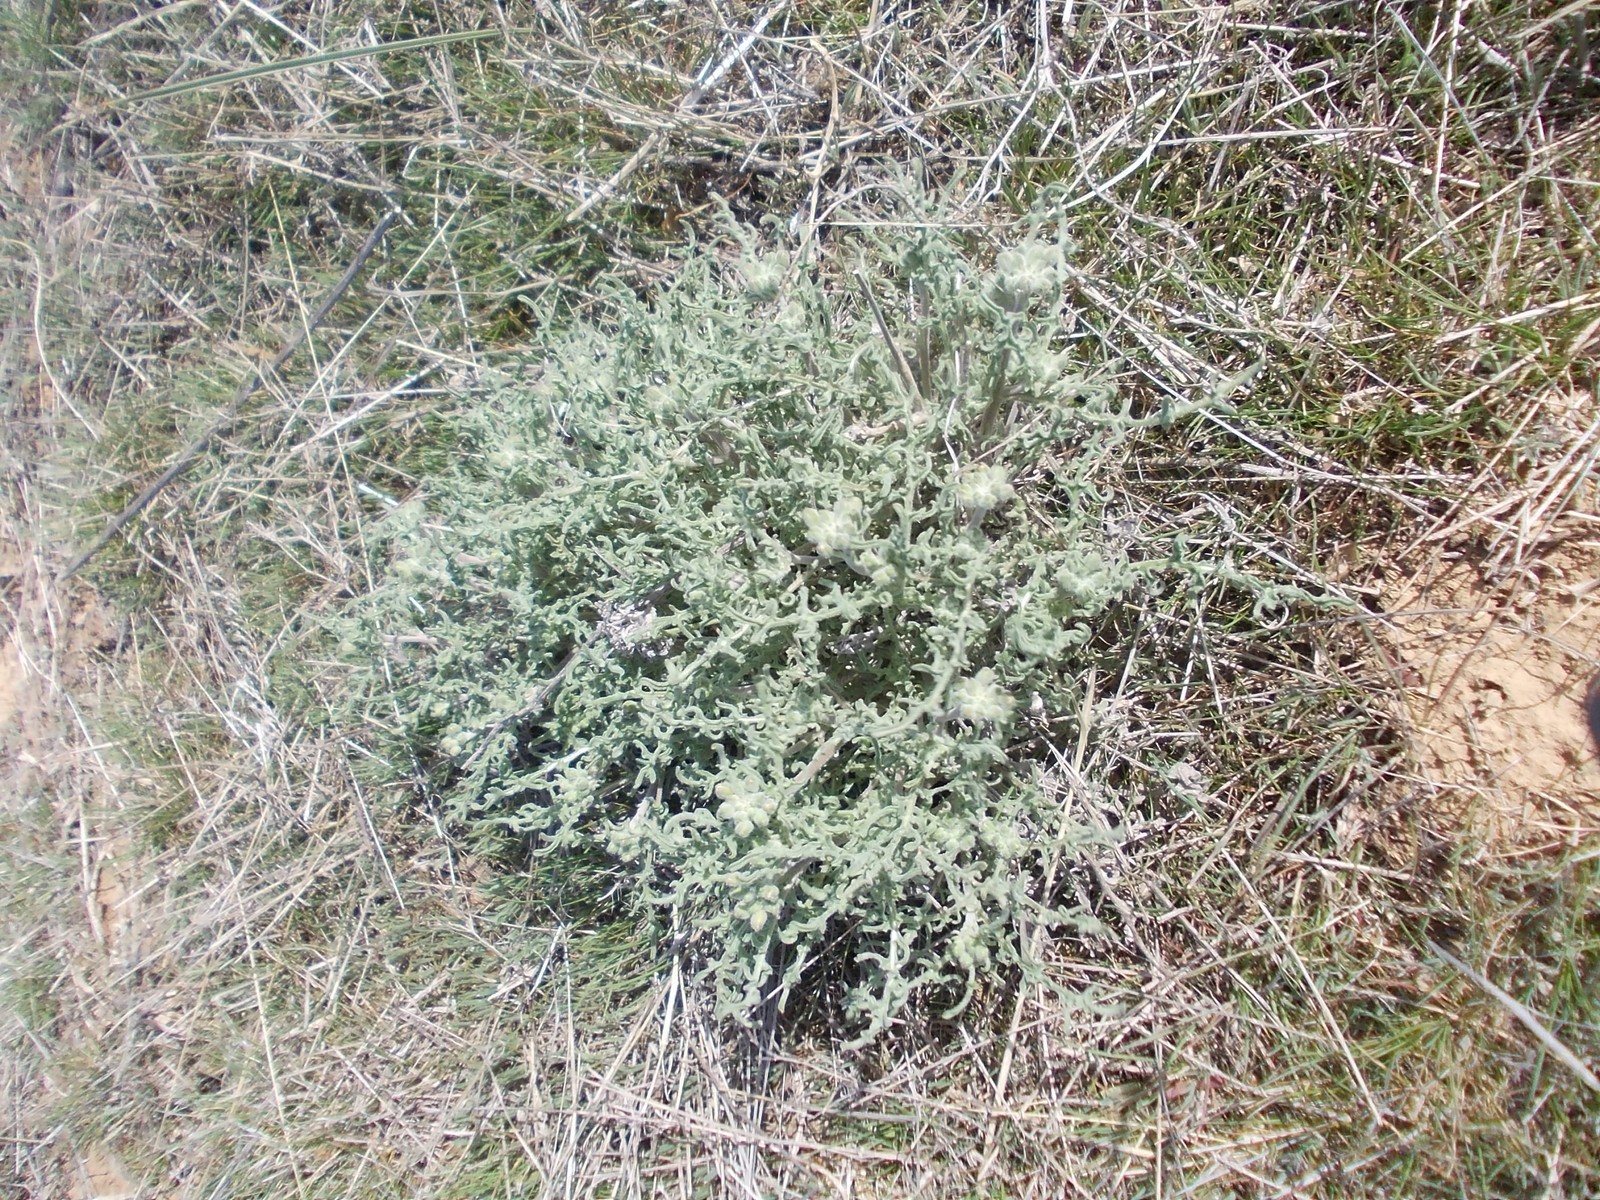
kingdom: Plantae
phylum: Tracheophyta
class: Magnoliopsida
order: Brassicales
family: Brassicaceae
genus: Sterigmostemum
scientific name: Sterigmostemum caspicum
